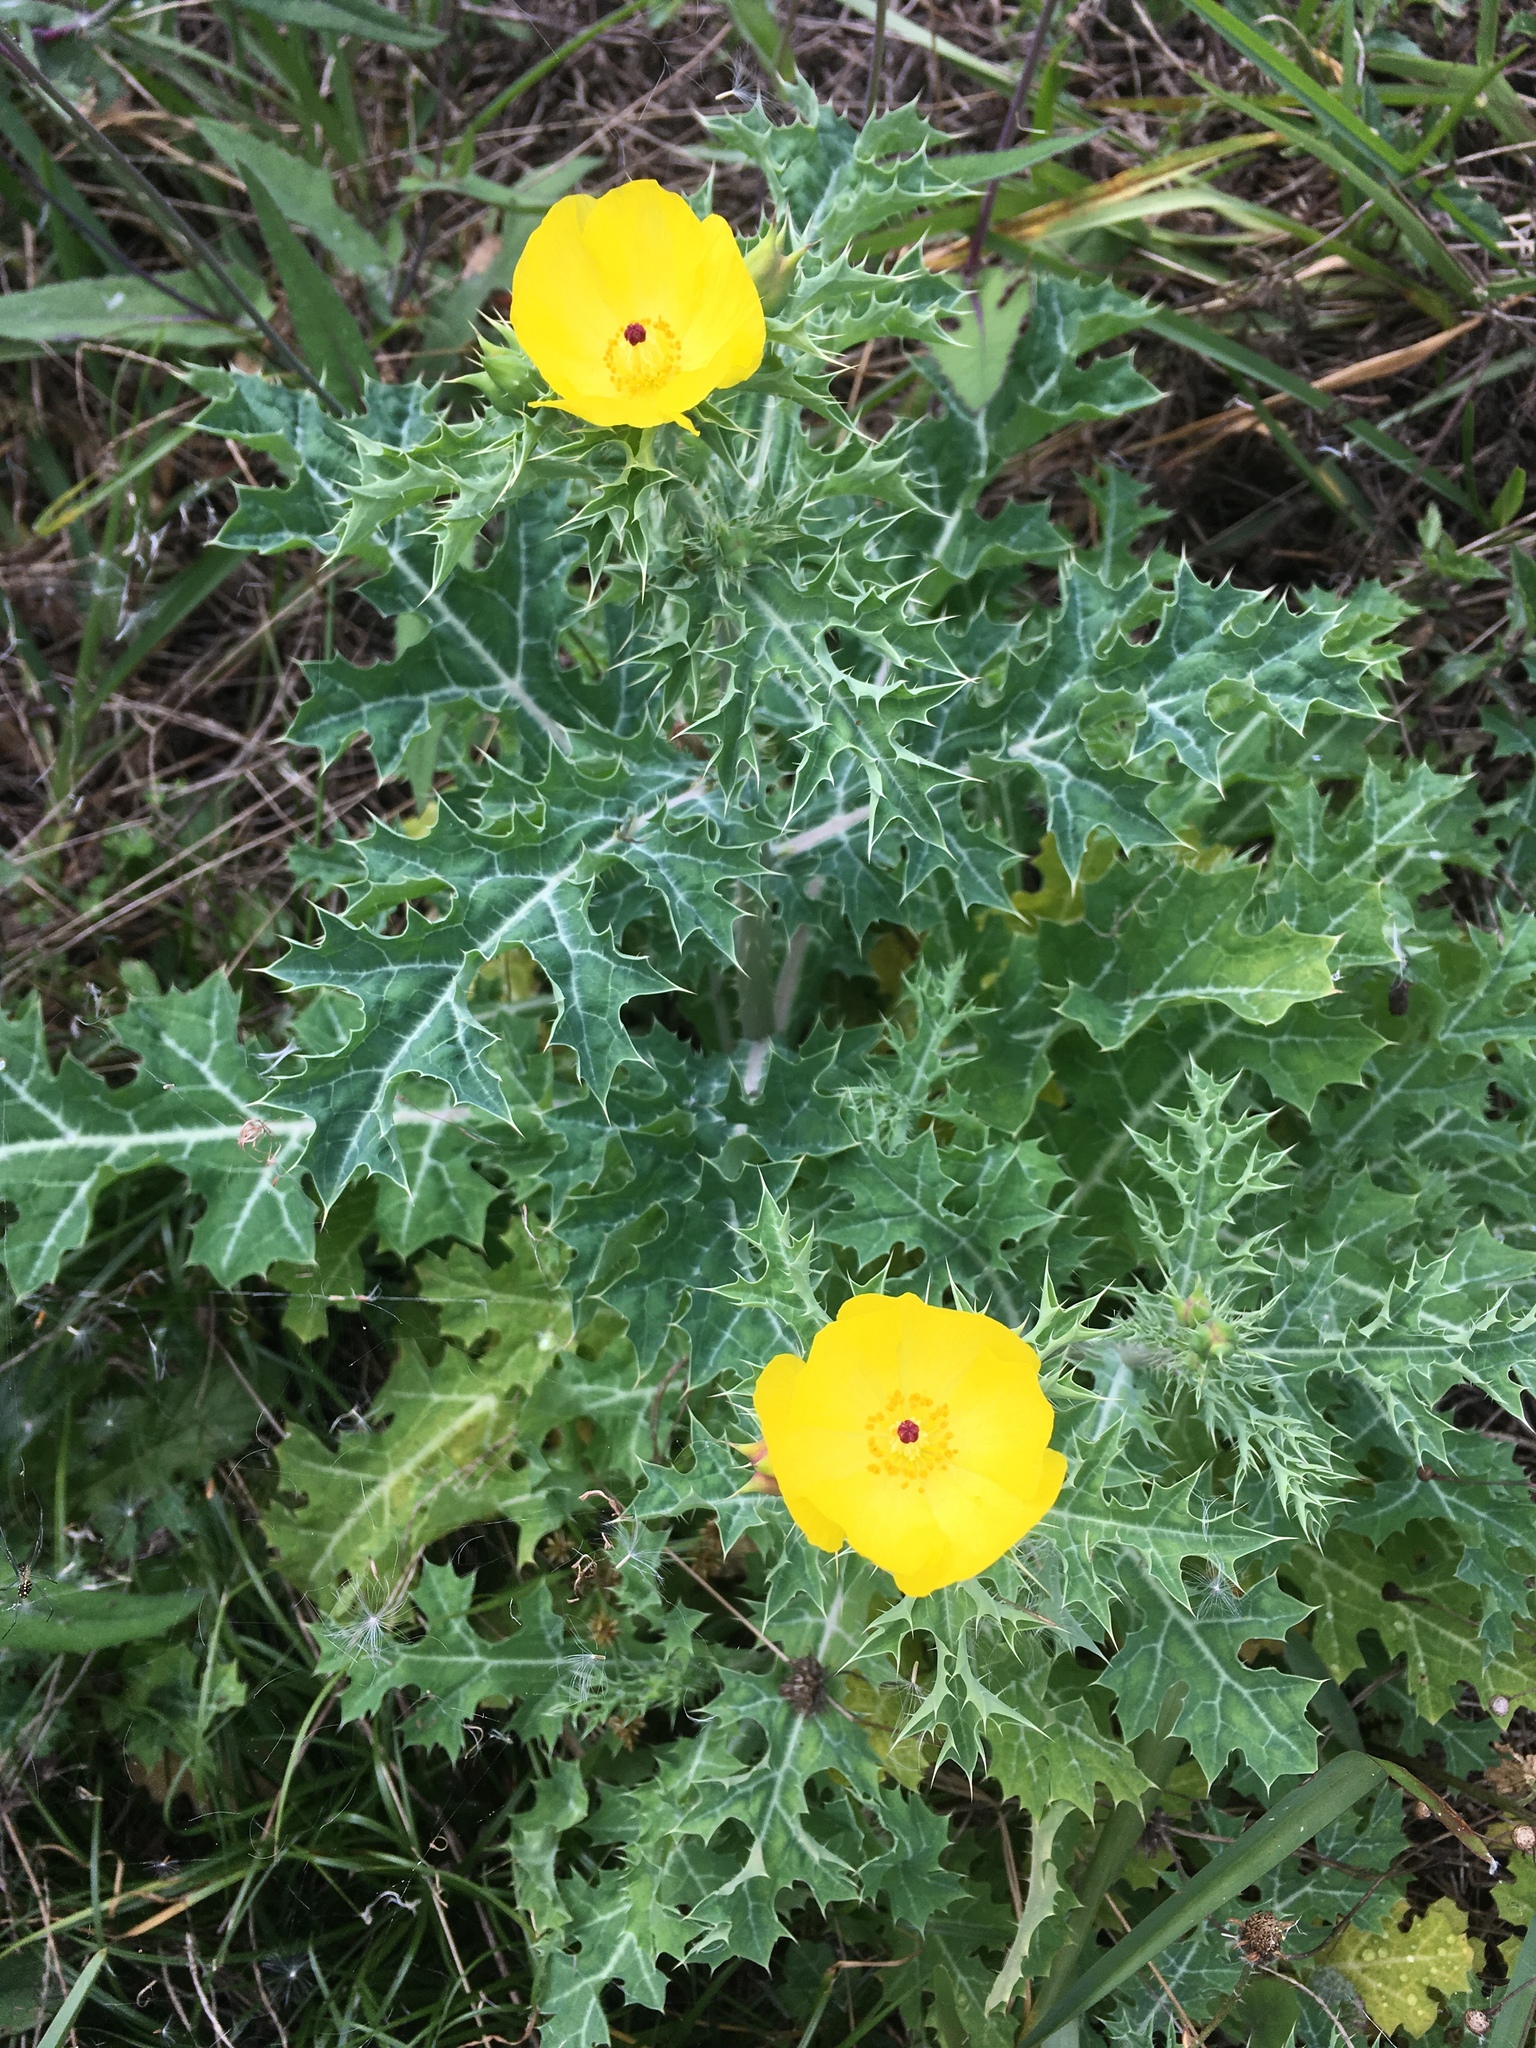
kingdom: Plantae
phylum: Tracheophyta
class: Magnoliopsida
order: Ranunculales
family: Papaveraceae
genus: Argemone
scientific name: Argemone mexicana
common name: Mexican poppy
